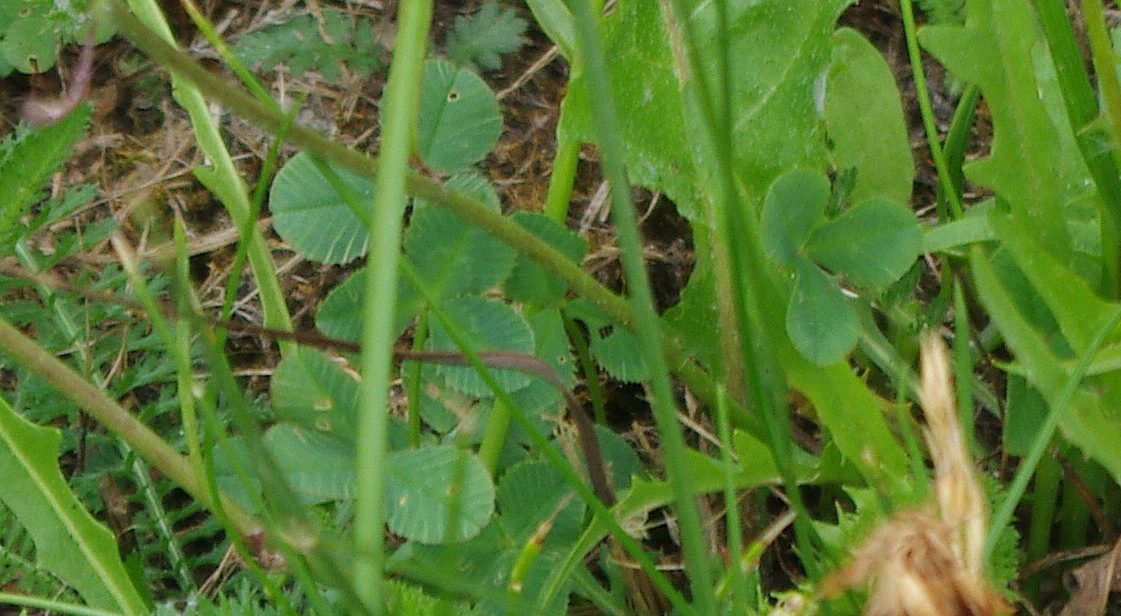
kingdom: Plantae
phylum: Tracheophyta
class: Magnoliopsida
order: Fabales
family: Fabaceae
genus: Medicago
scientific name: Medicago lupulina
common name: Black medick
